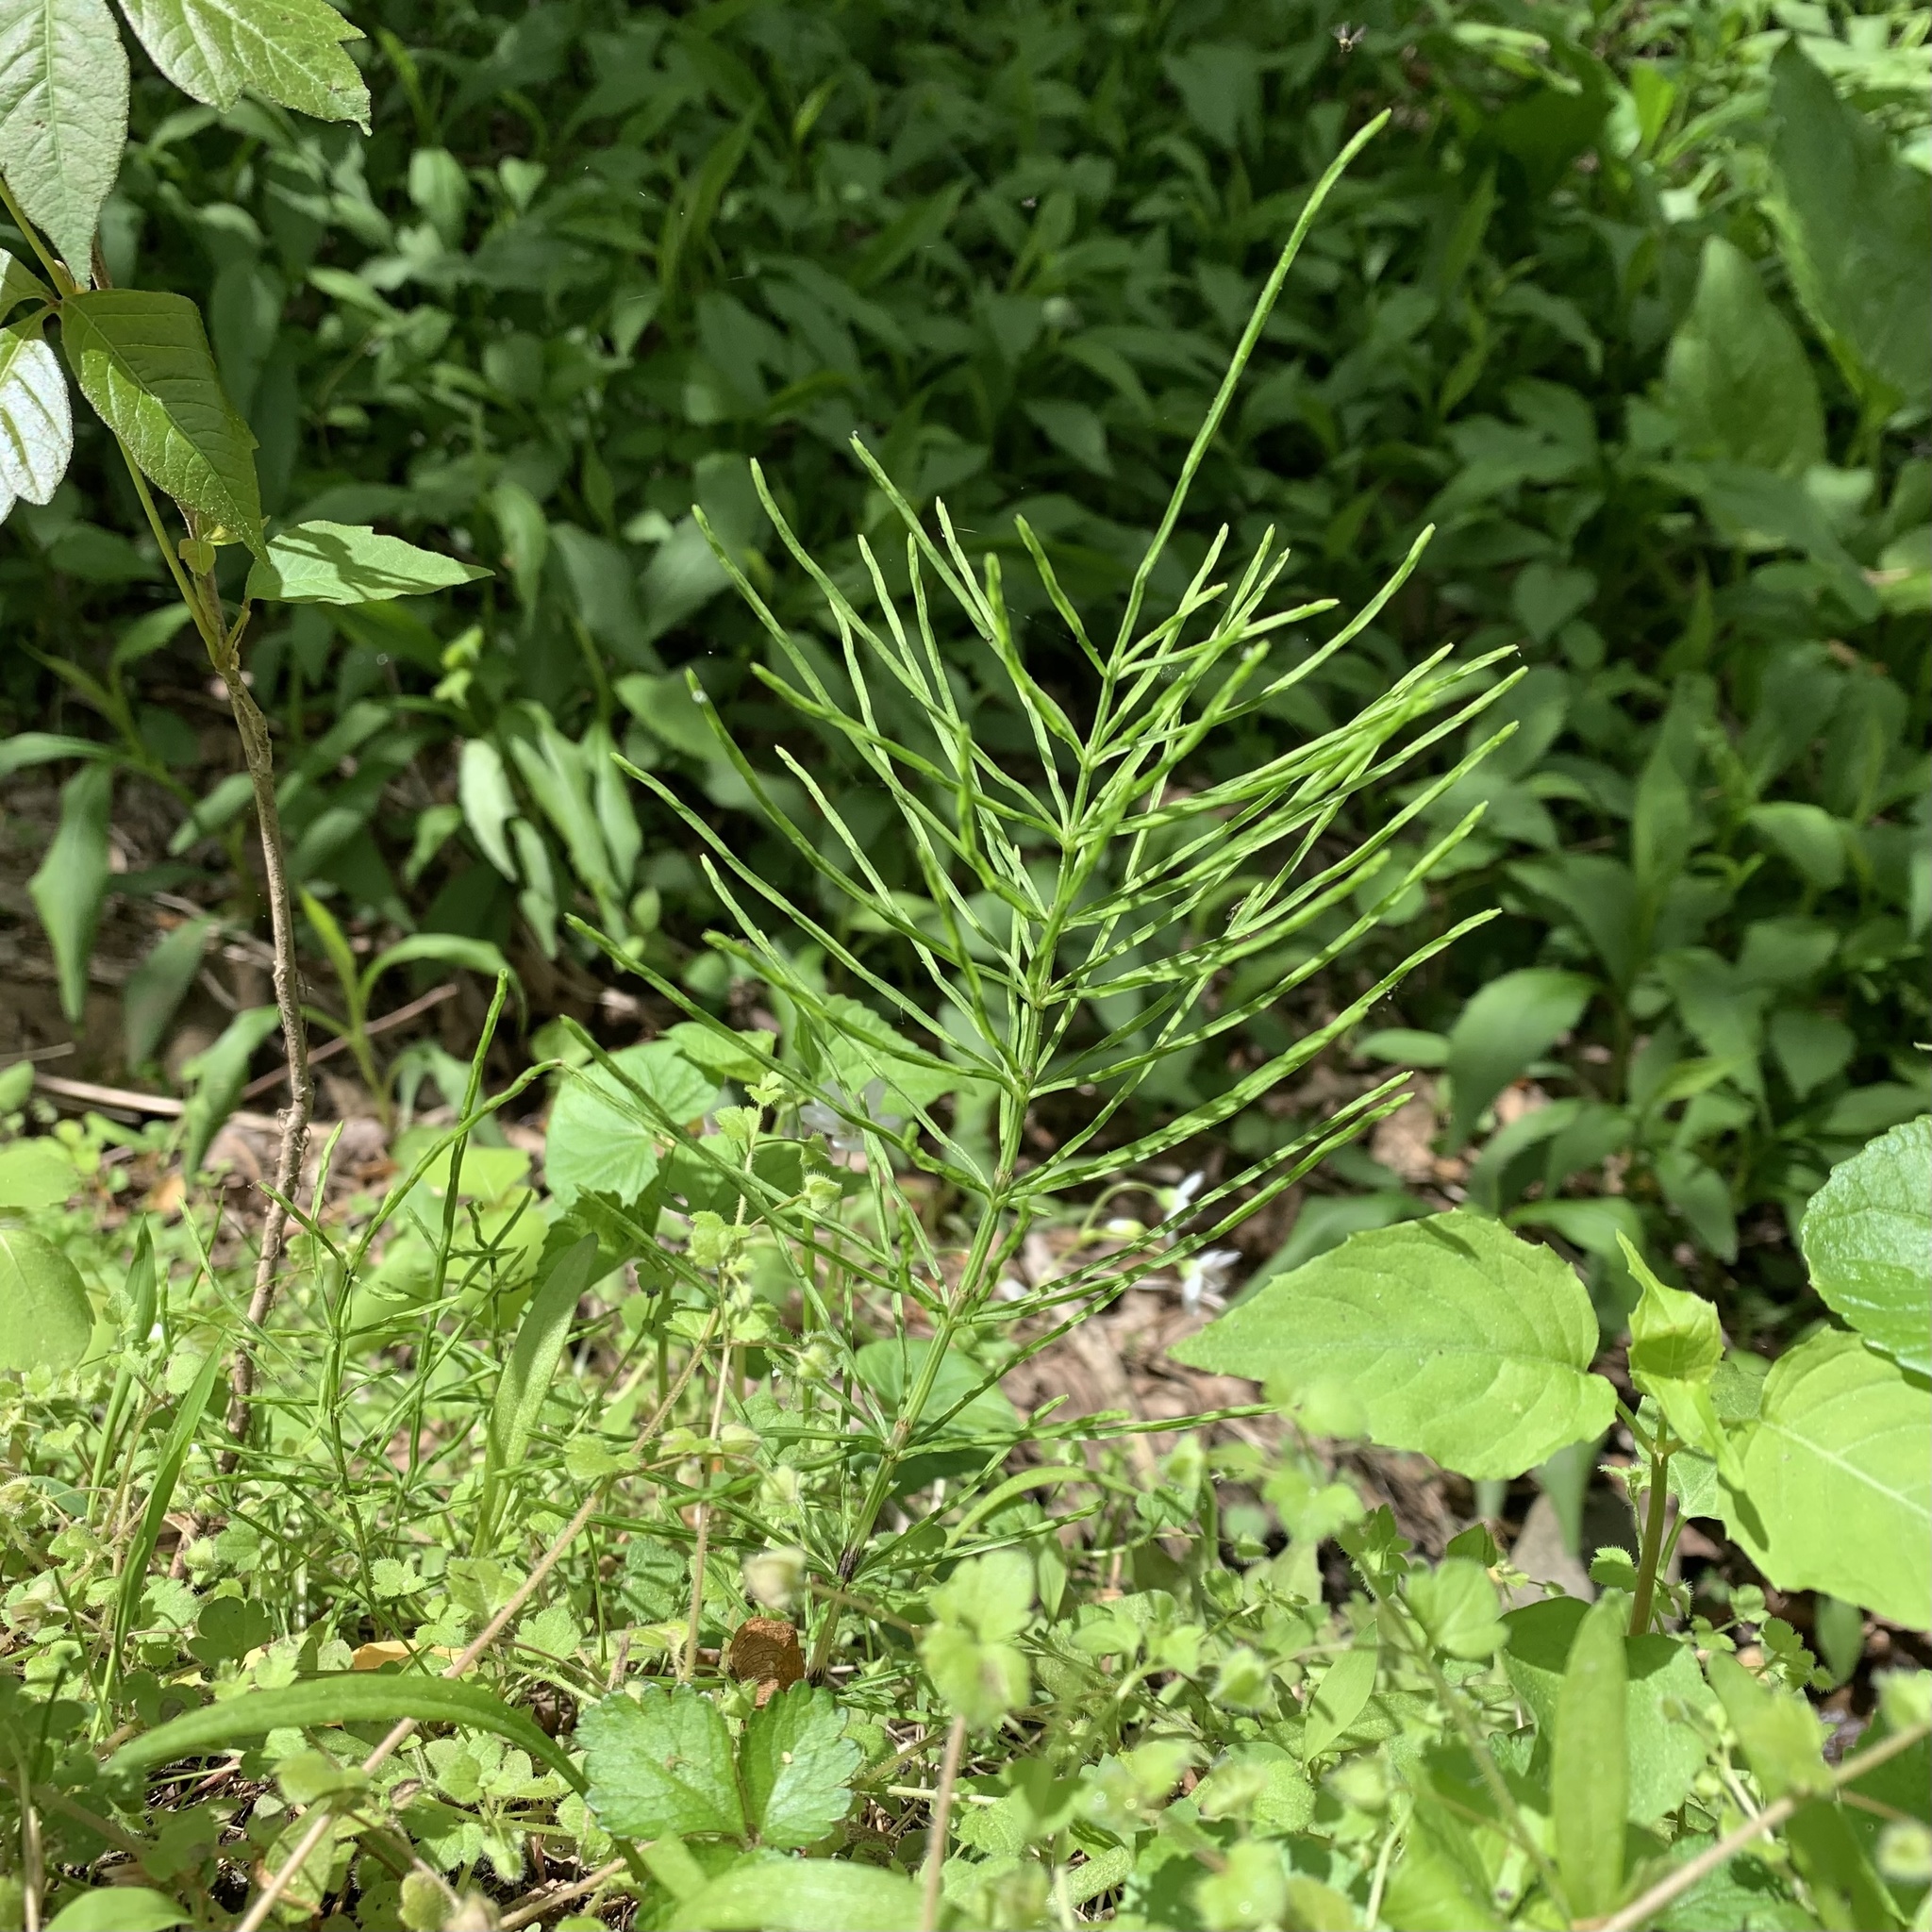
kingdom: Plantae
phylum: Tracheophyta
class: Polypodiopsida
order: Equisetales
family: Equisetaceae
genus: Equisetum
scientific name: Equisetum arvense
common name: Field horsetail
